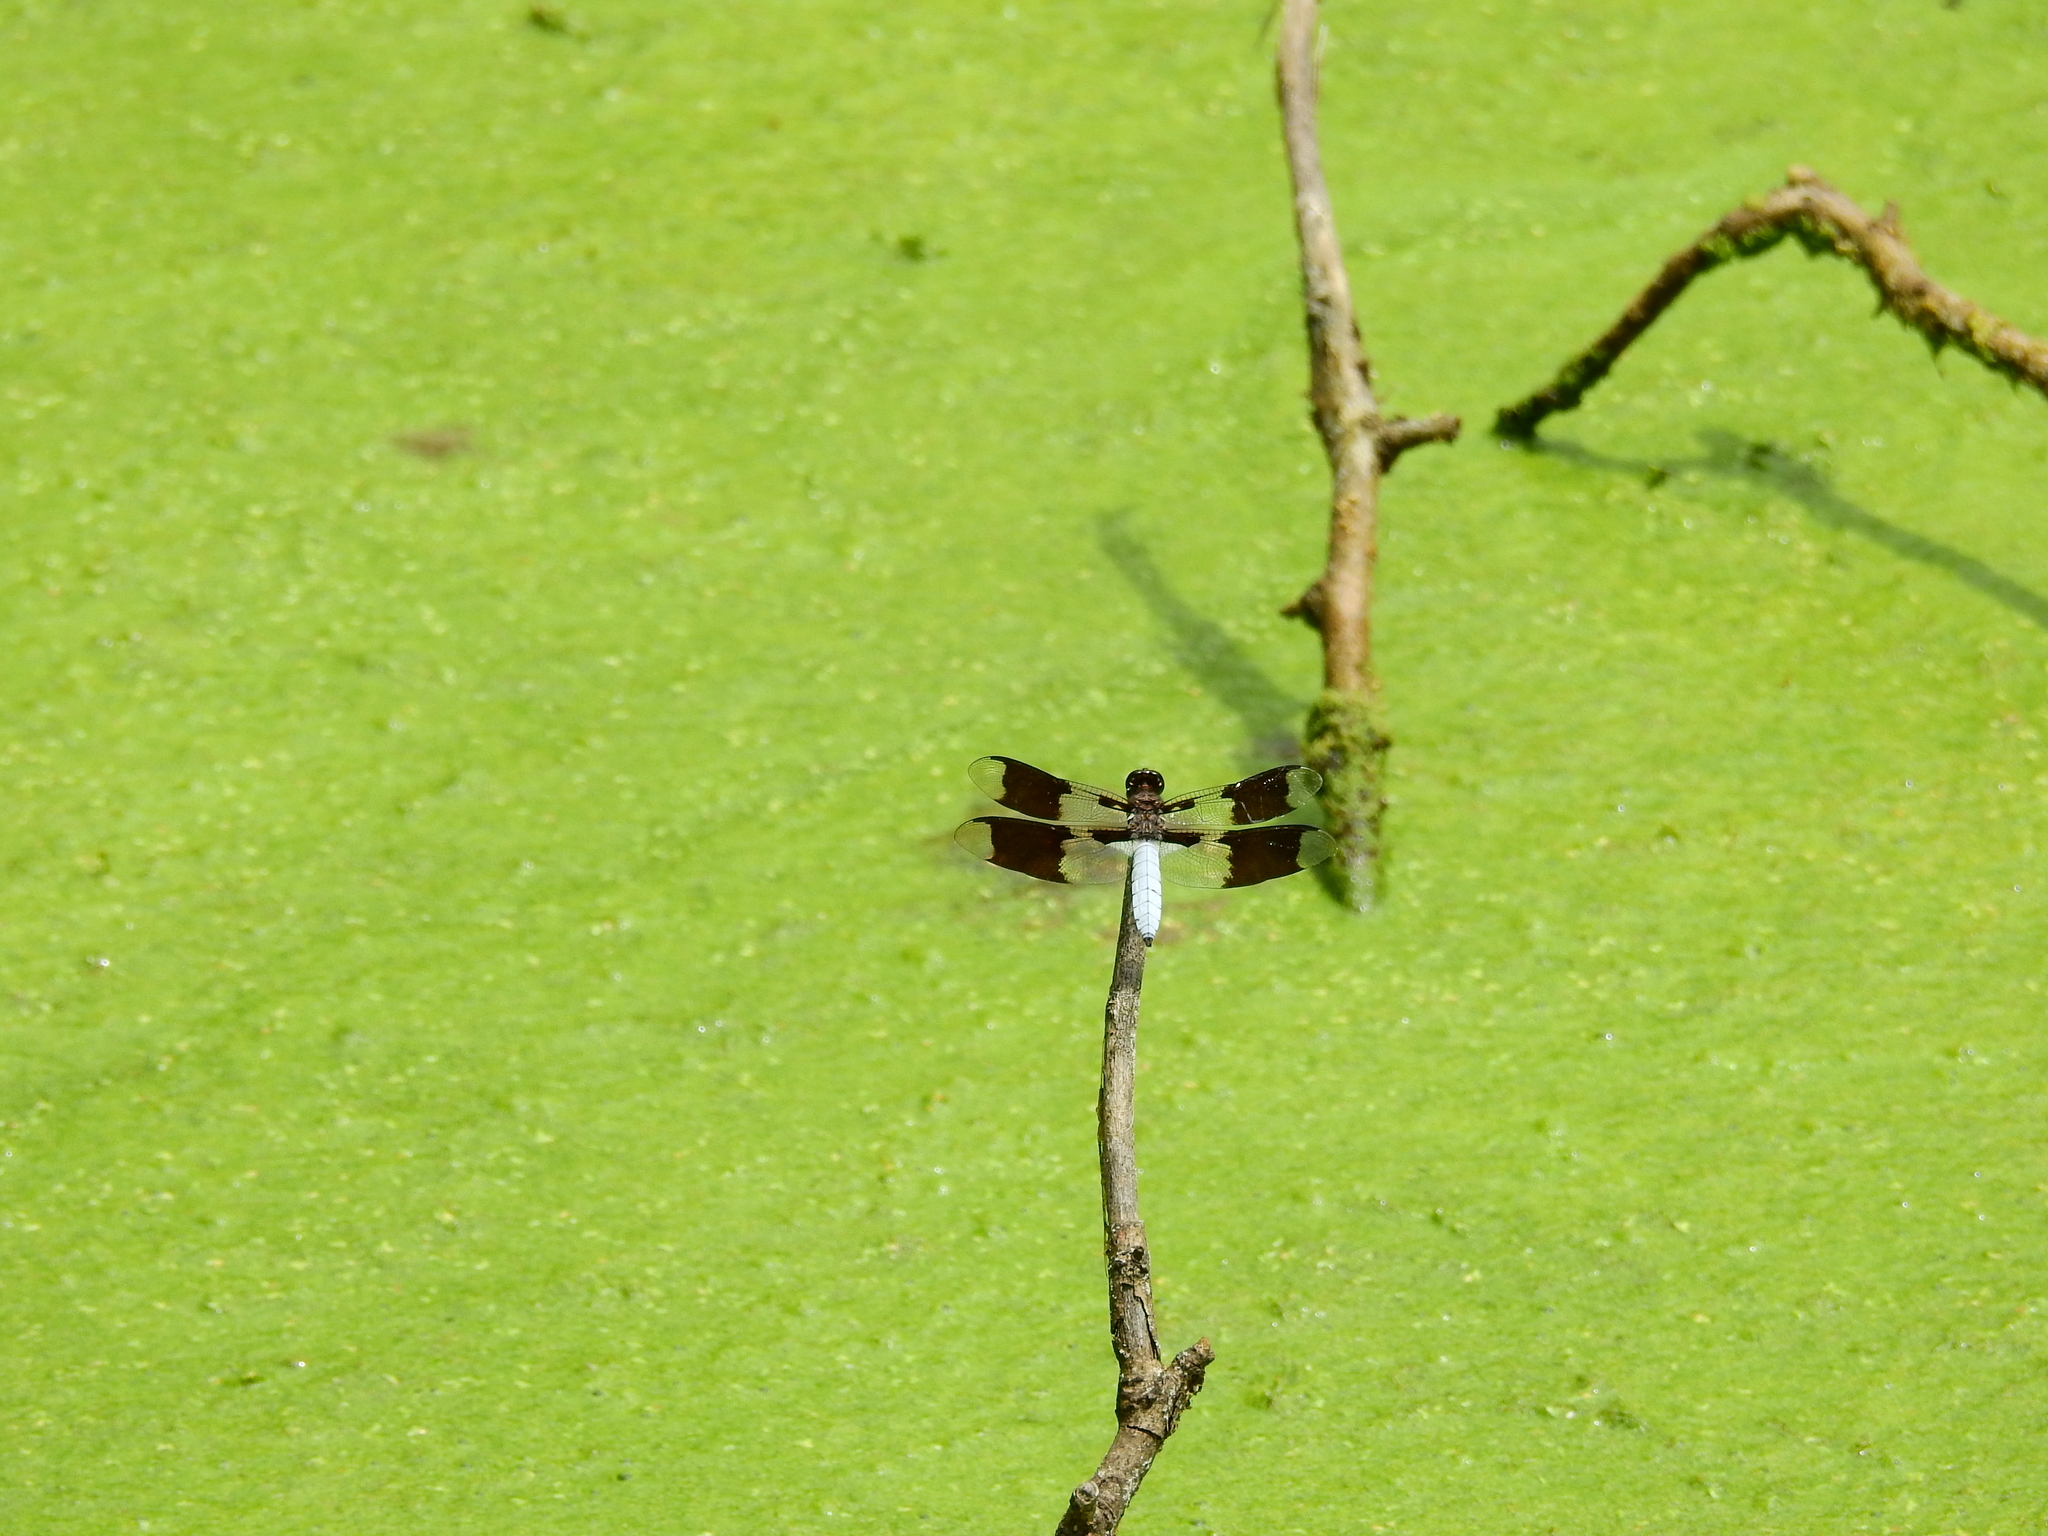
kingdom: Animalia
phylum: Arthropoda
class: Insecta
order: Odonata
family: Libellulidae
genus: Plathemis
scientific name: Plathemis lydia
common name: Common whitetail
